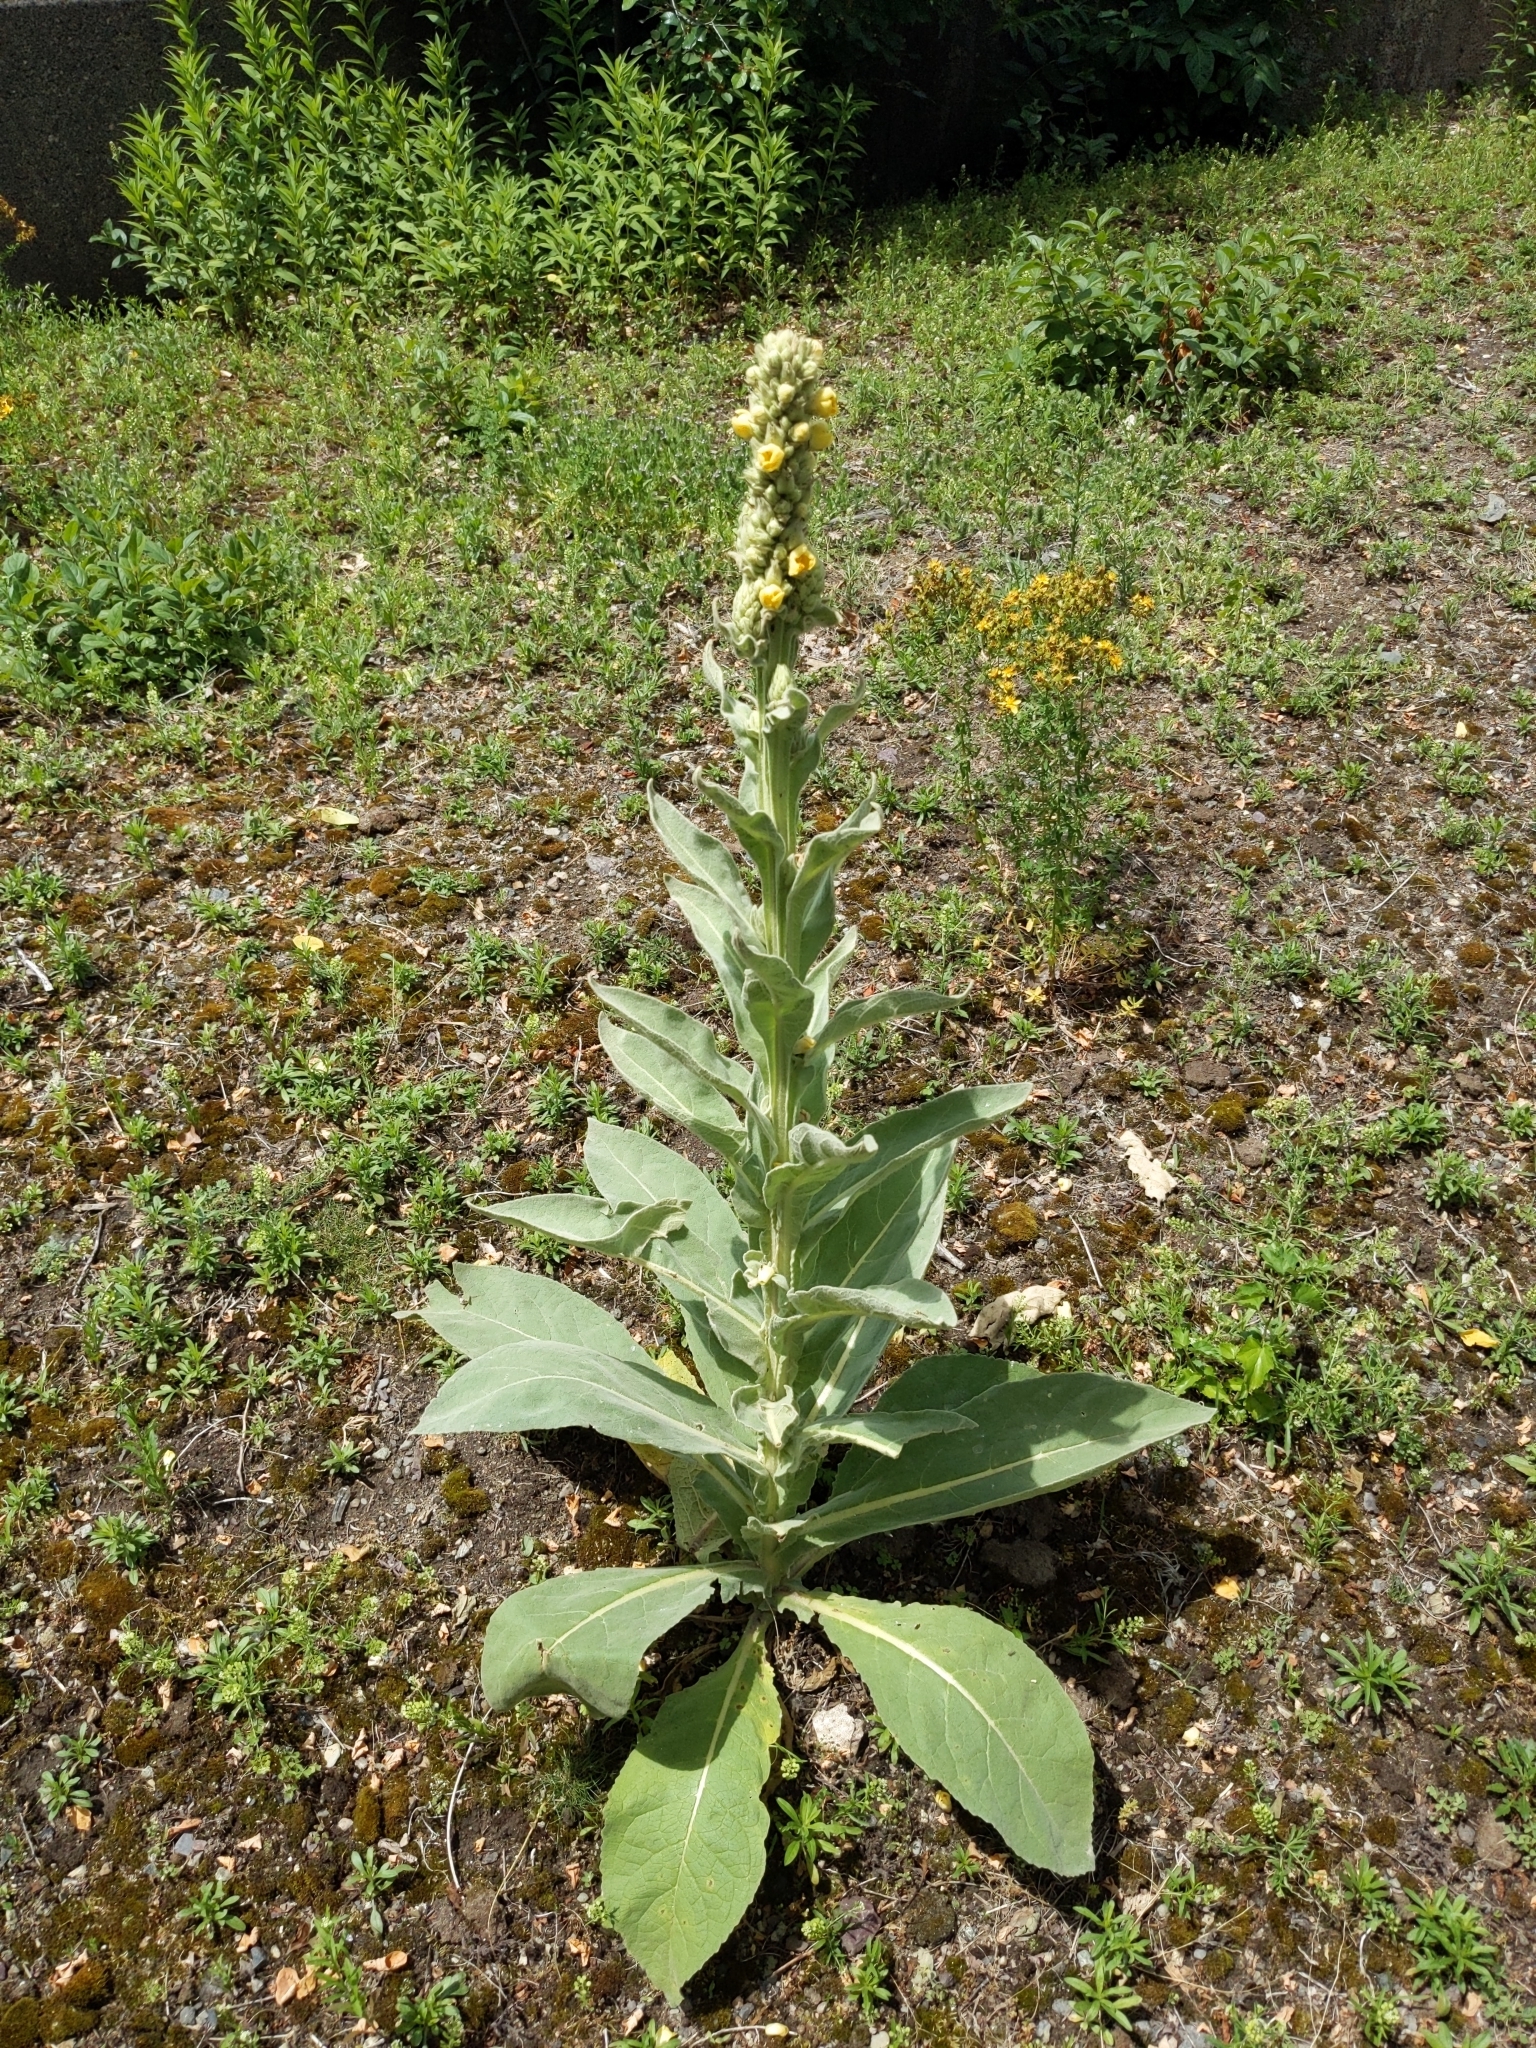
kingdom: Plantae
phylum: Tracheophyta
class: Magnoliopsida
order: Lamiales
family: Scrophulariaceae
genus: Verbascum
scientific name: Verbascum thapsus
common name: Common mullein
